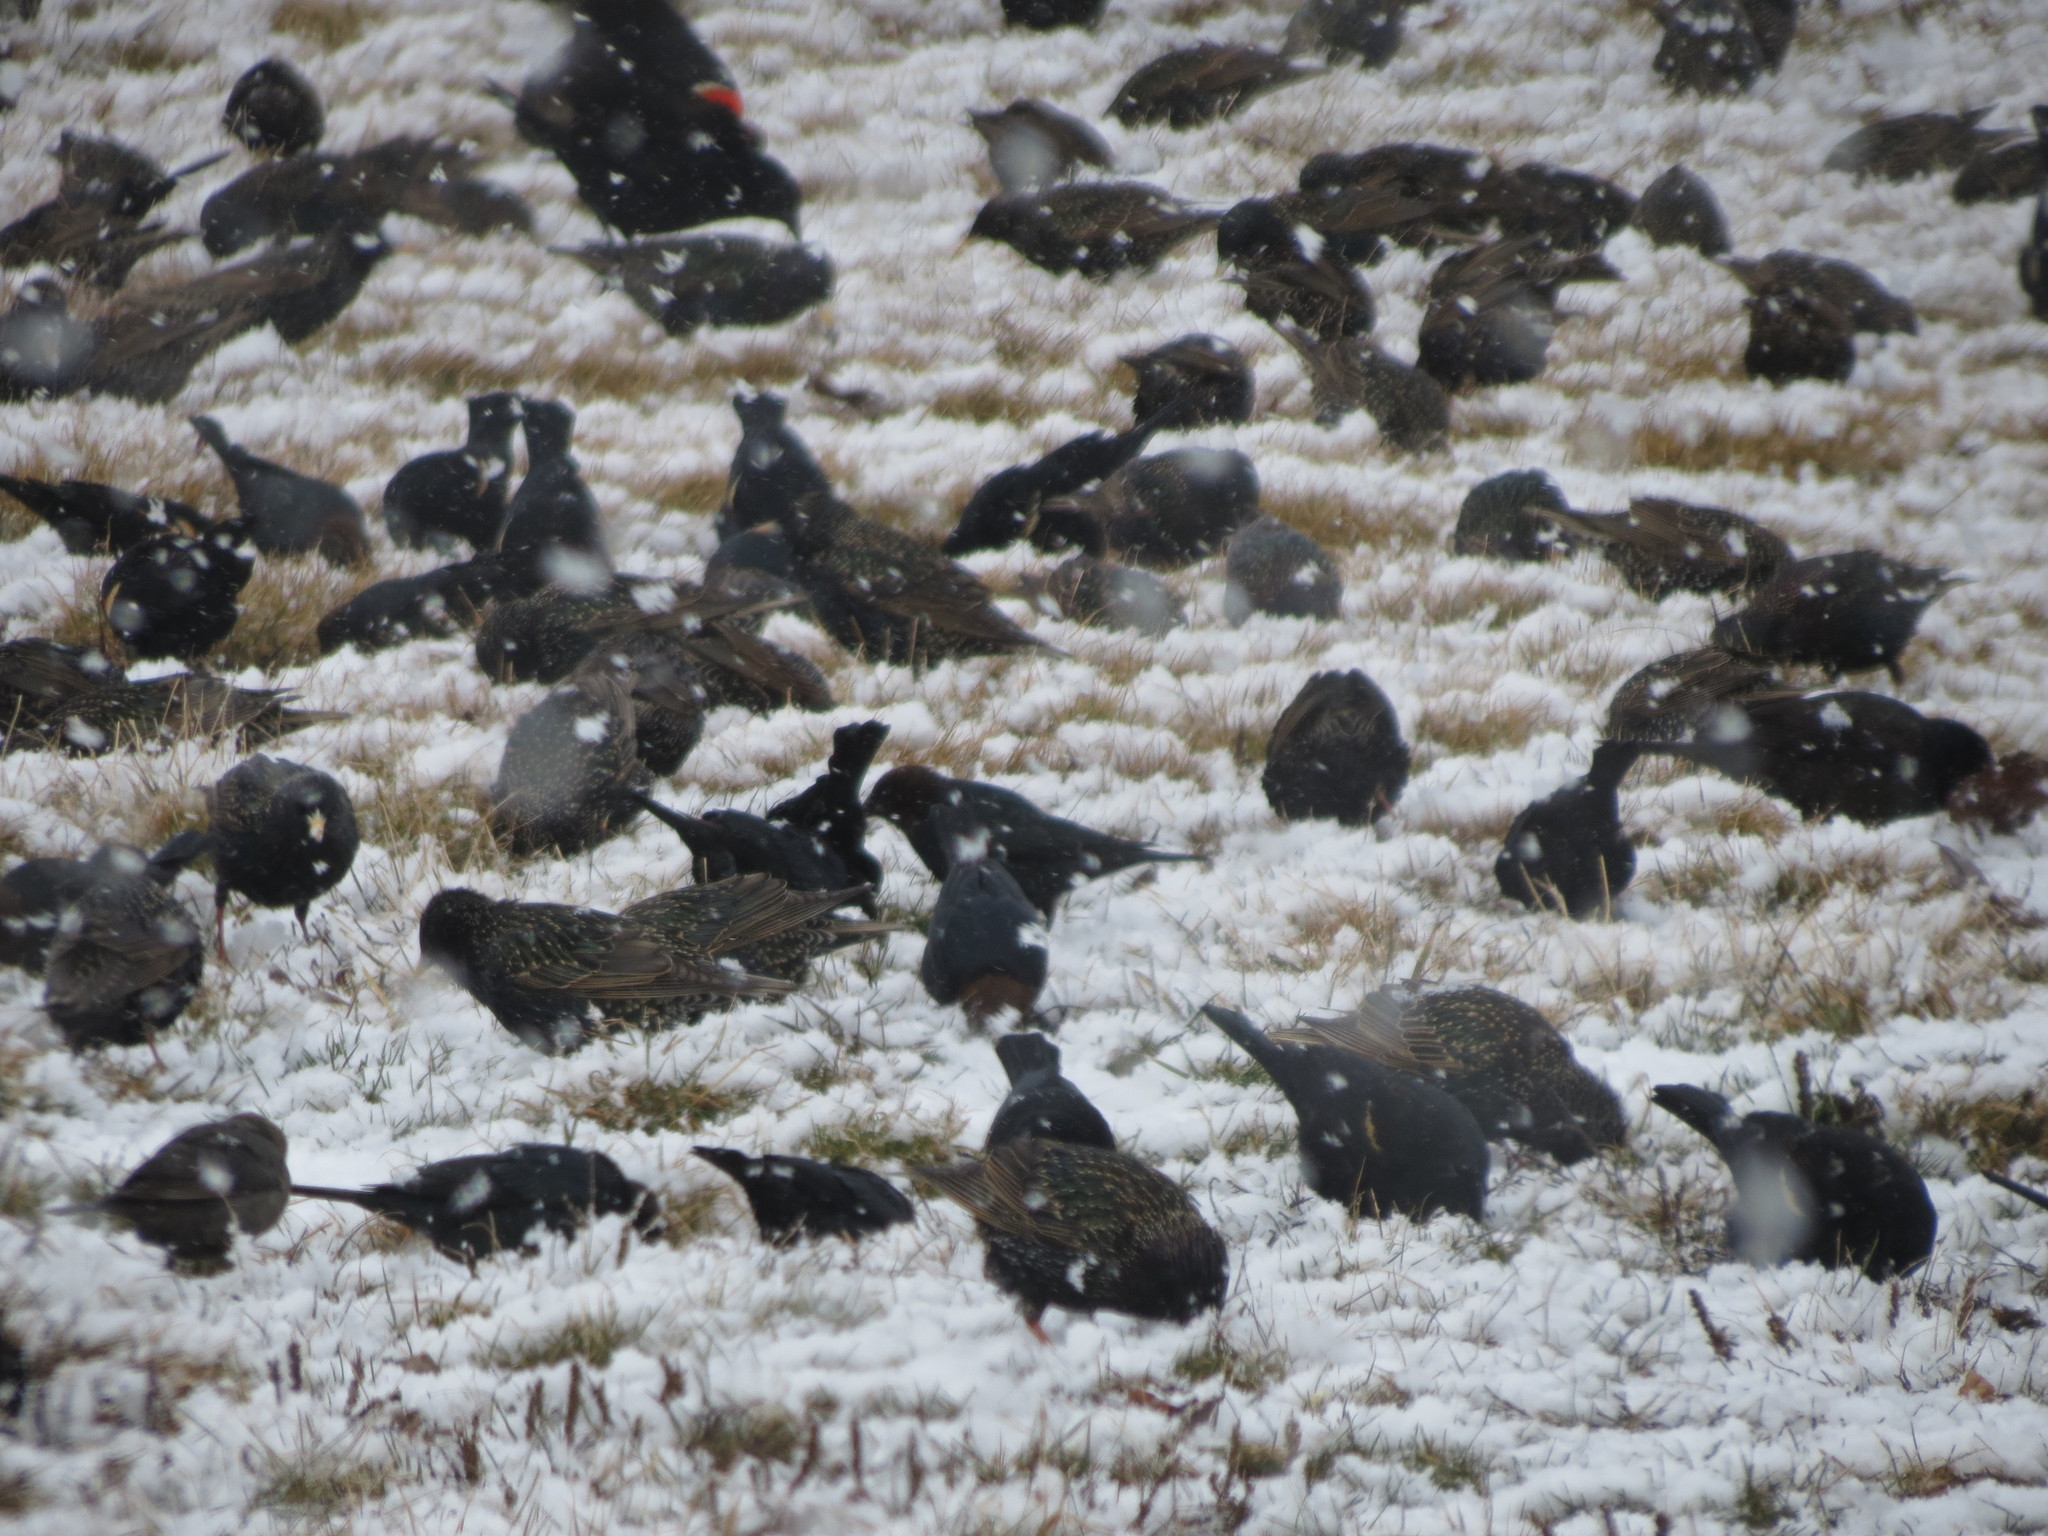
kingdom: Animalia
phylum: Chordata
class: Aves
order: Passeriformes
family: Icteridae
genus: Molothrus
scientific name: Molothrus ater
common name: Brown-headed cowbird
